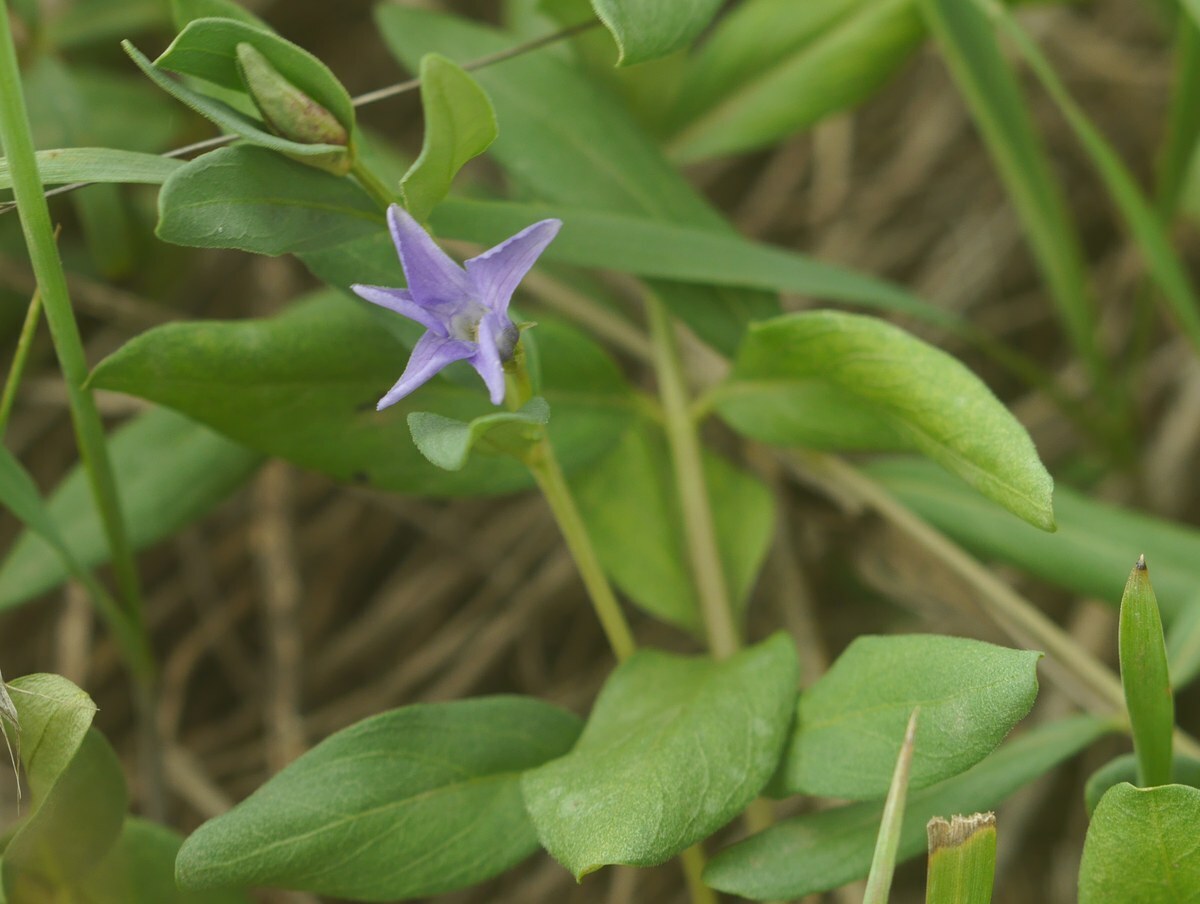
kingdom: Plantae
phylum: Tracheophyta
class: Magnoliopsida
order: Gentianales
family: Apocynaceae
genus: Vinca
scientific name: Vinca herbacea
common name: Herbaceous periwinkle
